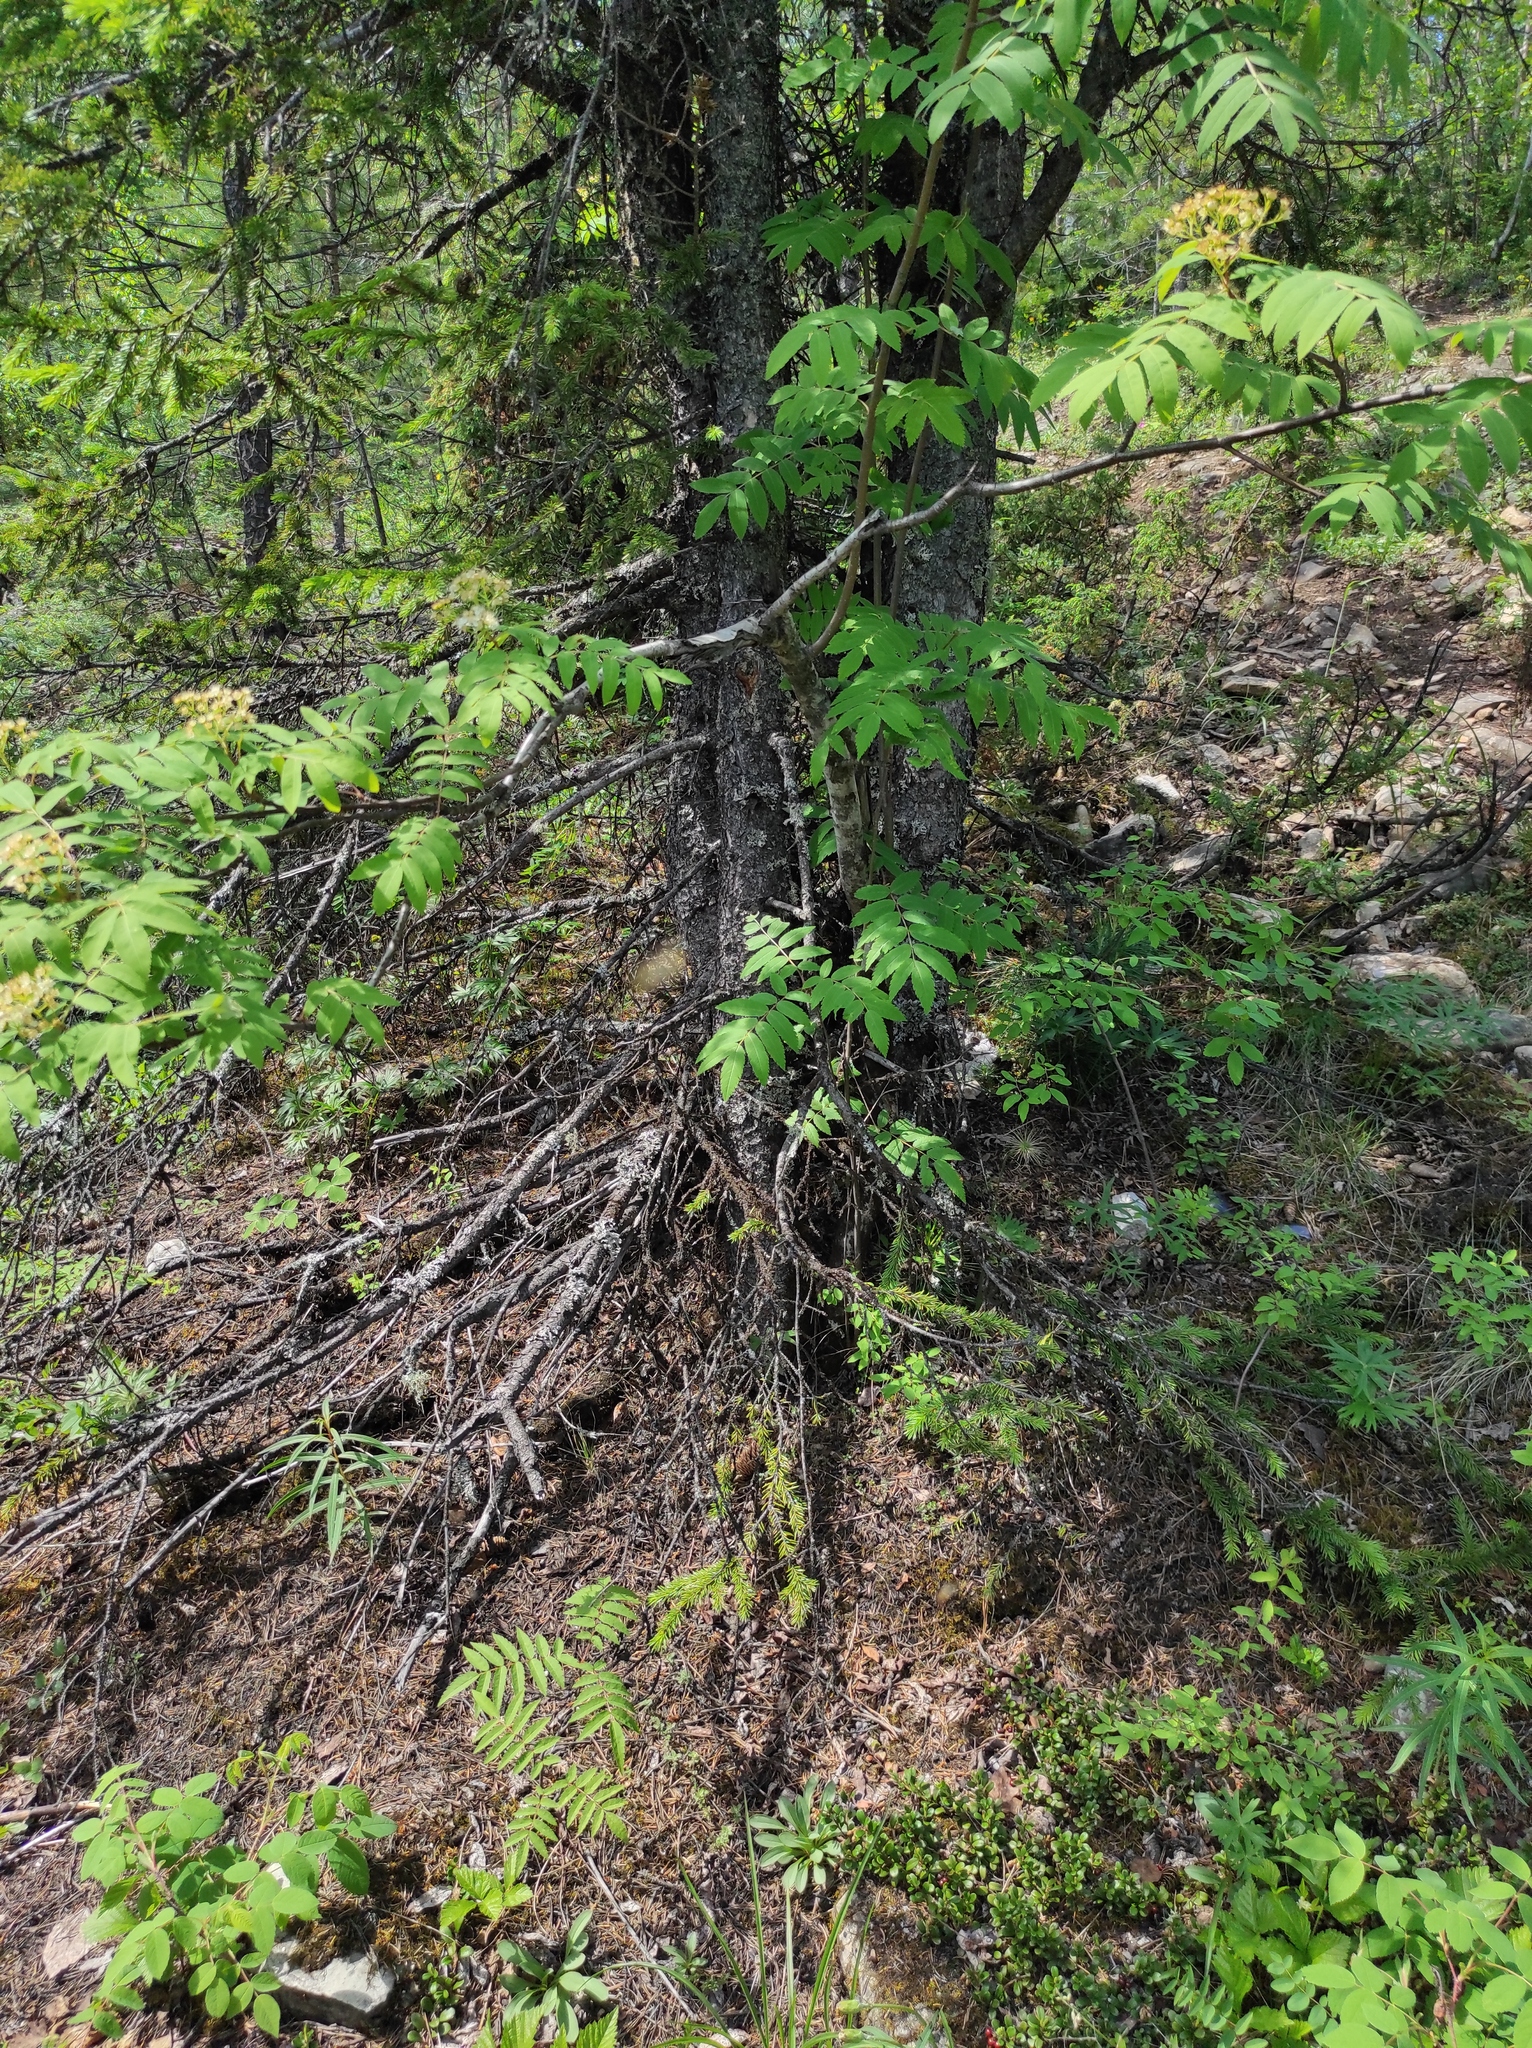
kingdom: Plantae
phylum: Tracheophyta
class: Pinopsida
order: Pinales
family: Pinaceae
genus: Picea
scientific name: Picea obovata
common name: Siberian spruce
